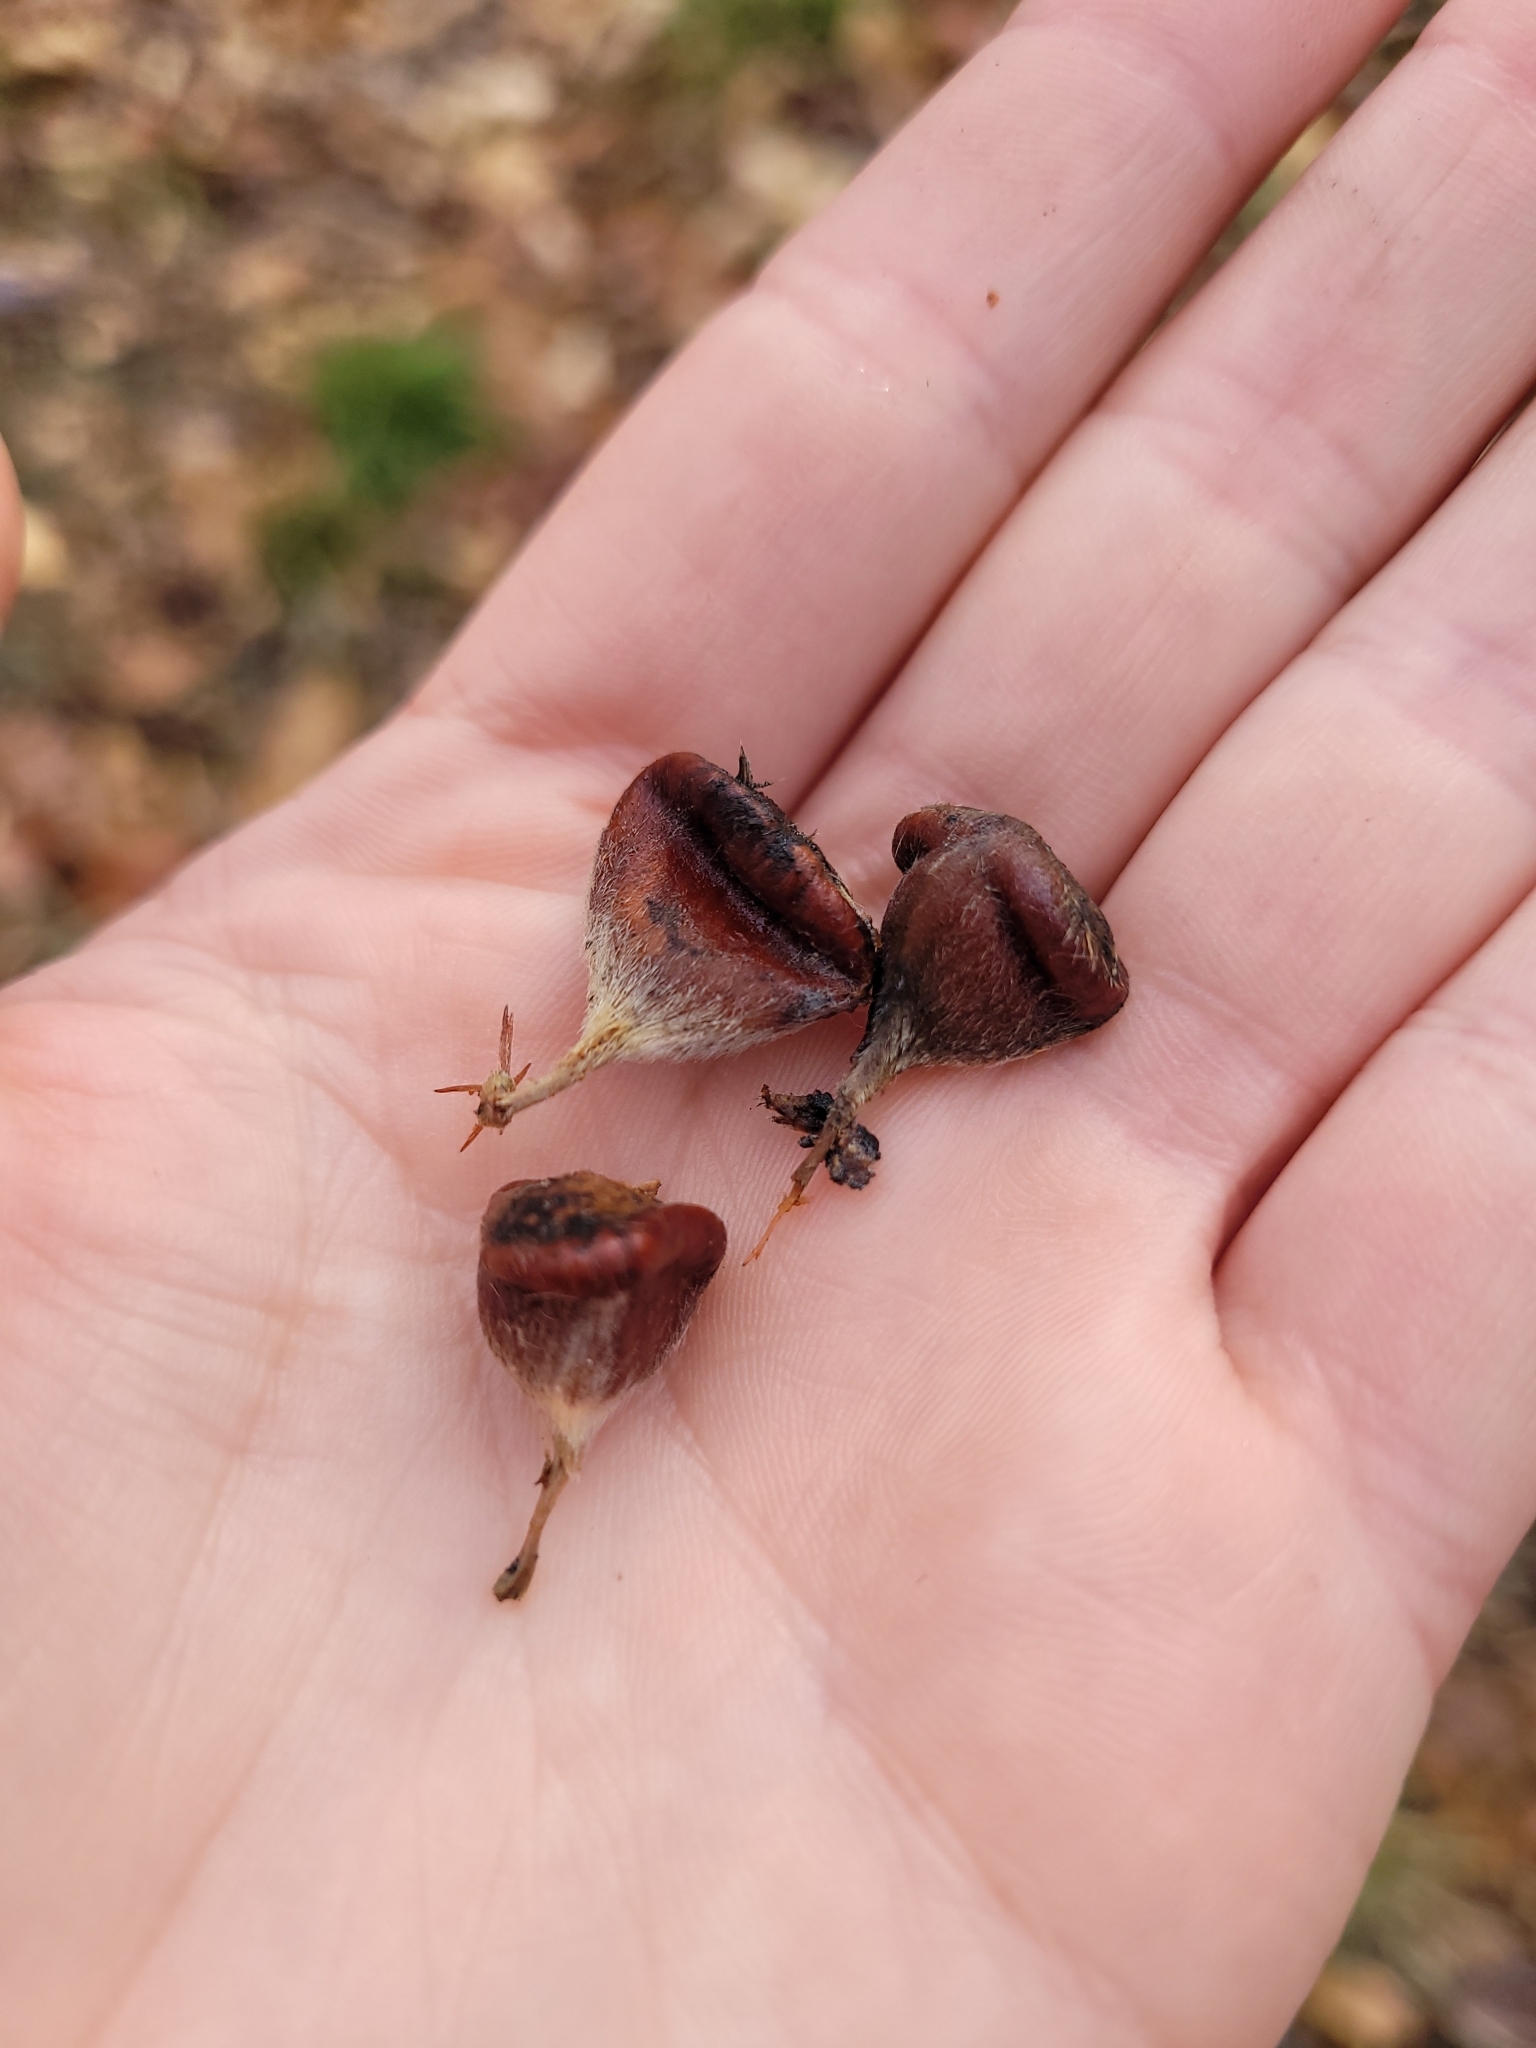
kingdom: Plantae
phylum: Tracheophyta
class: Magnoliopsida
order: Fagales
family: Fagaceae
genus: Castanea
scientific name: Castanea dentata
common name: American chestnut
